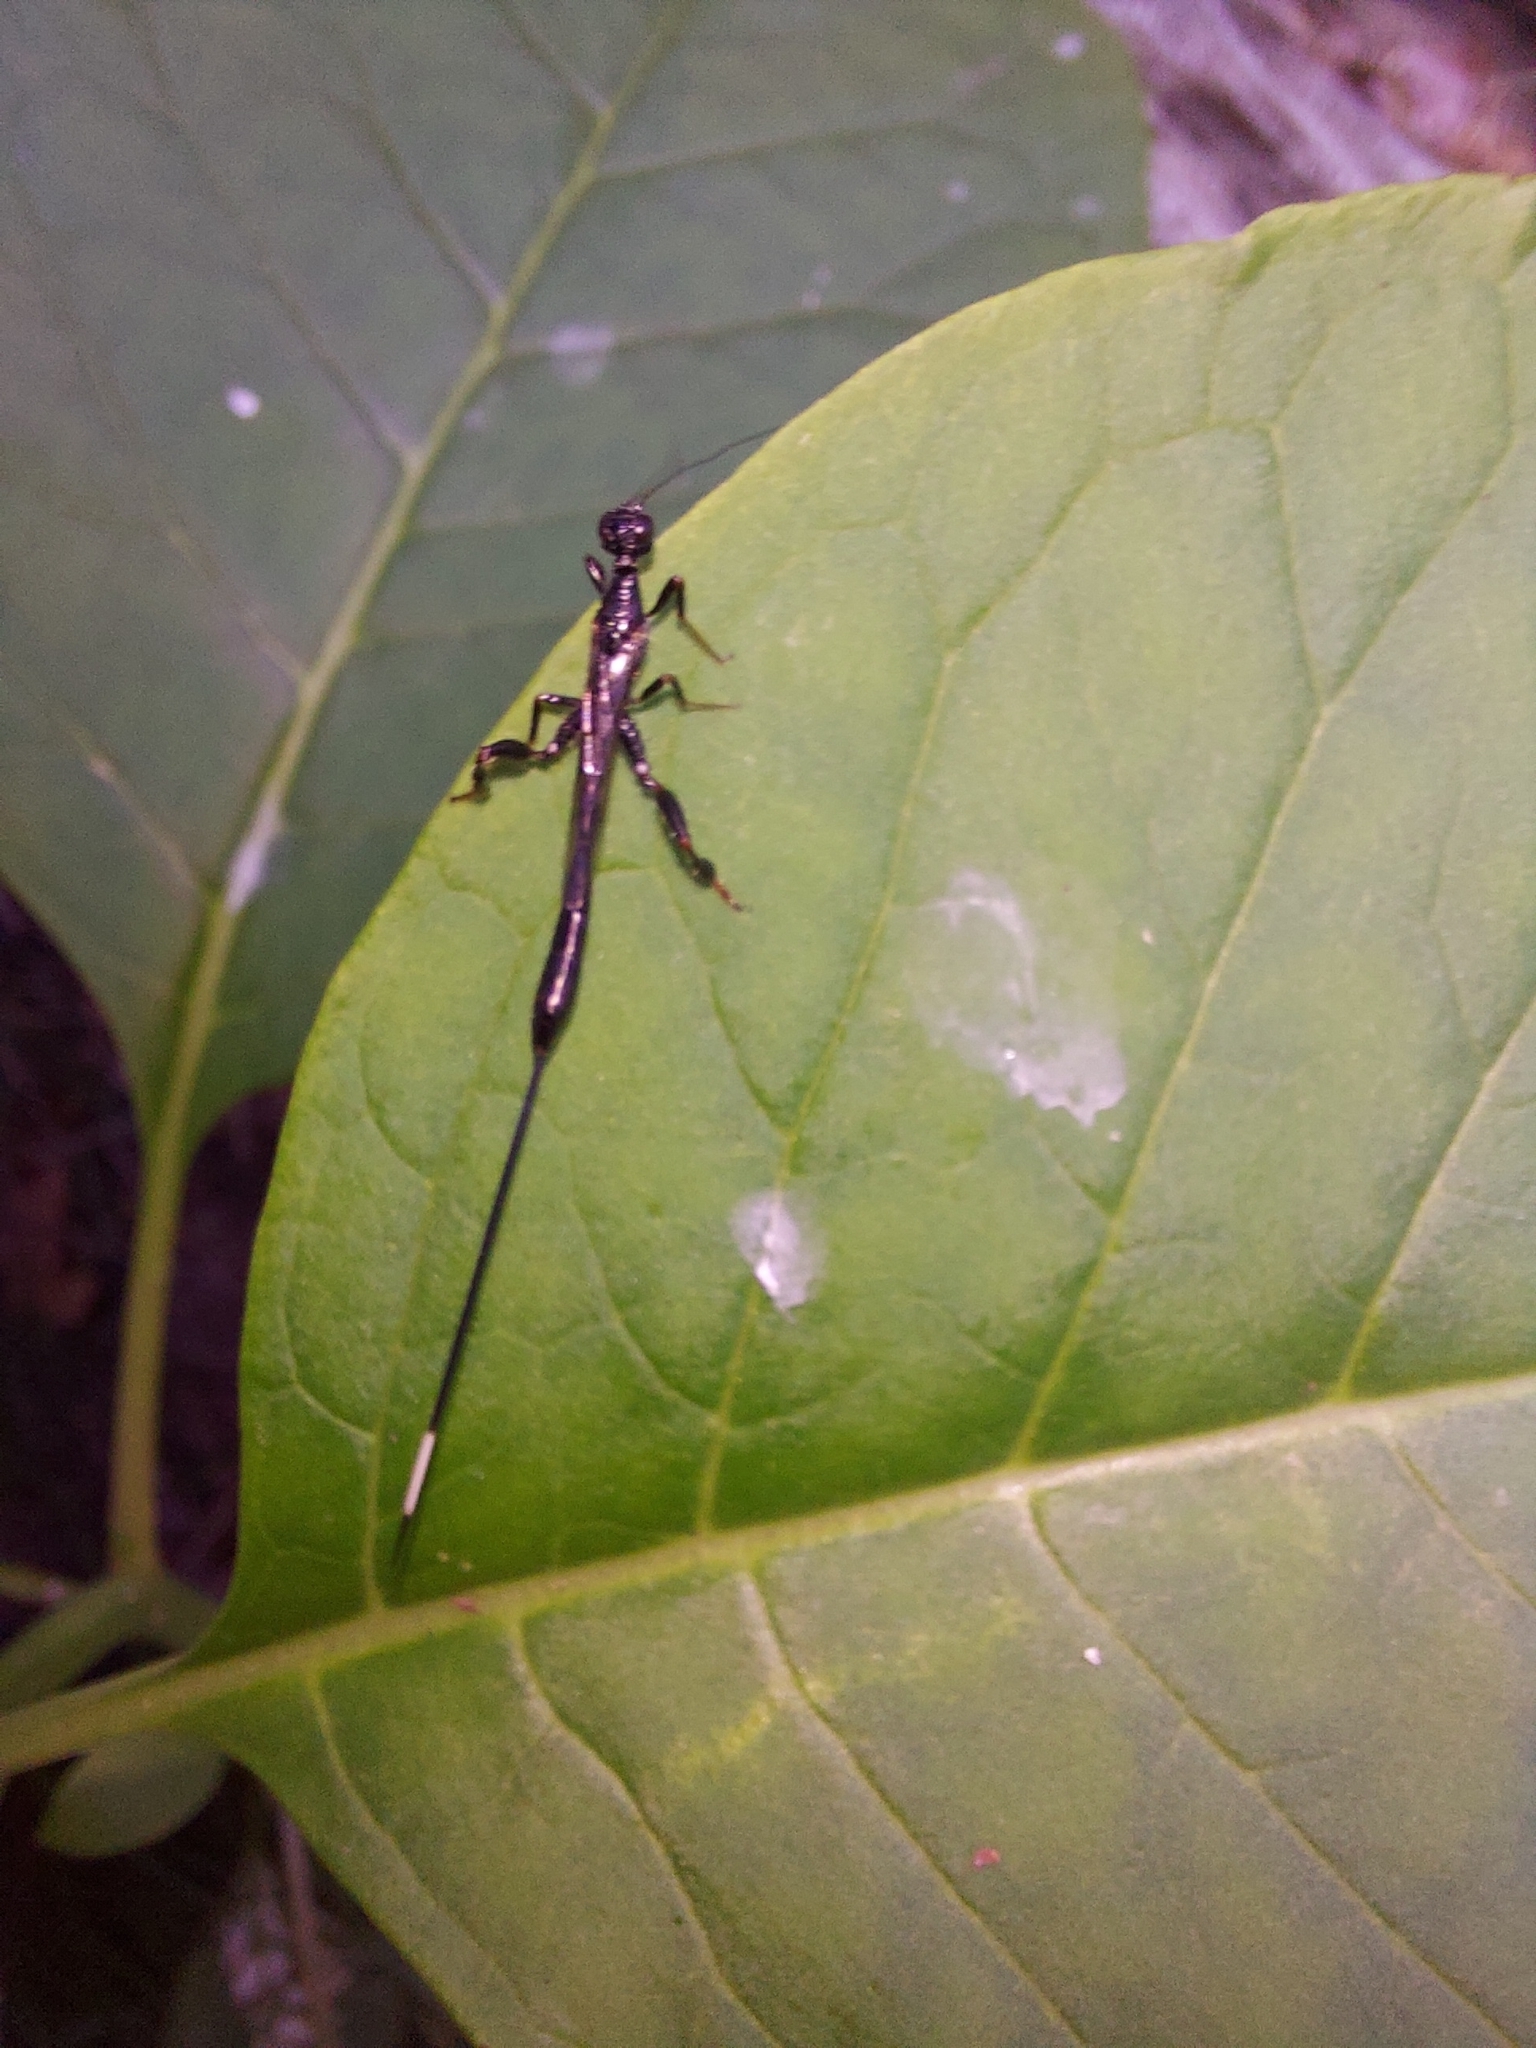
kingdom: Animalia
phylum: Arthropoda
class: Insecta
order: Hymenoptera
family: Stephanidae
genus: Megischus
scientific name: Megischus
